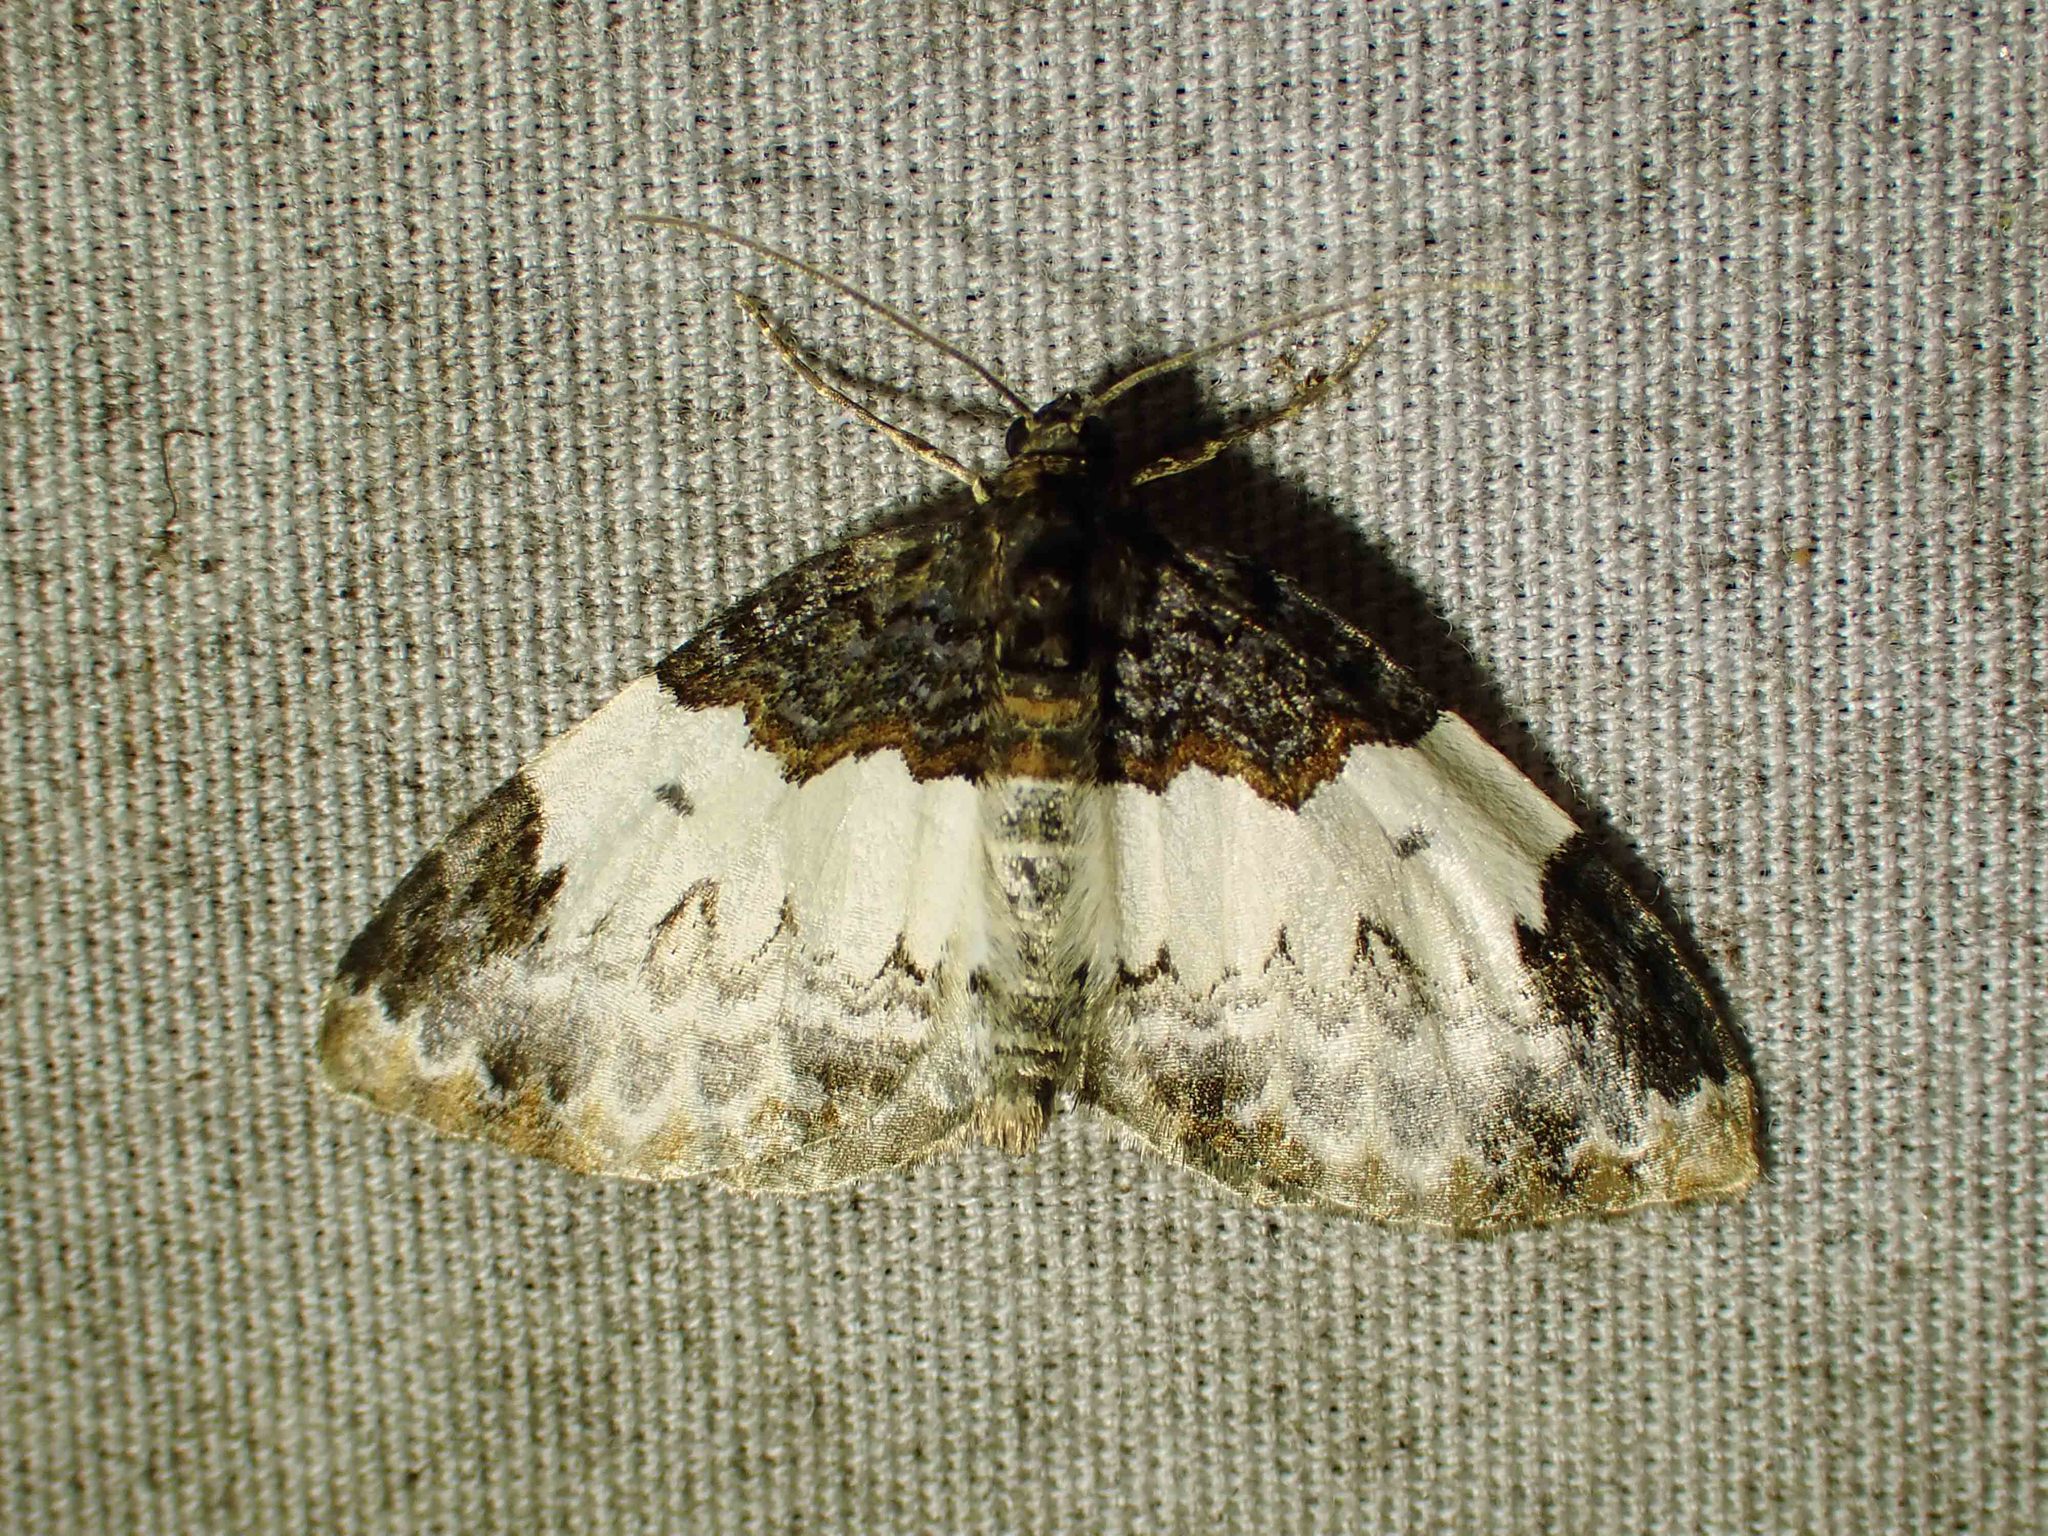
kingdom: Animalia
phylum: Arthropoda
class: Insecta
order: Lepidoptera
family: Geometridae
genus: Mesoleuca
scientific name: Mesoleuca ruficillata
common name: White-ribboned carpet moth
